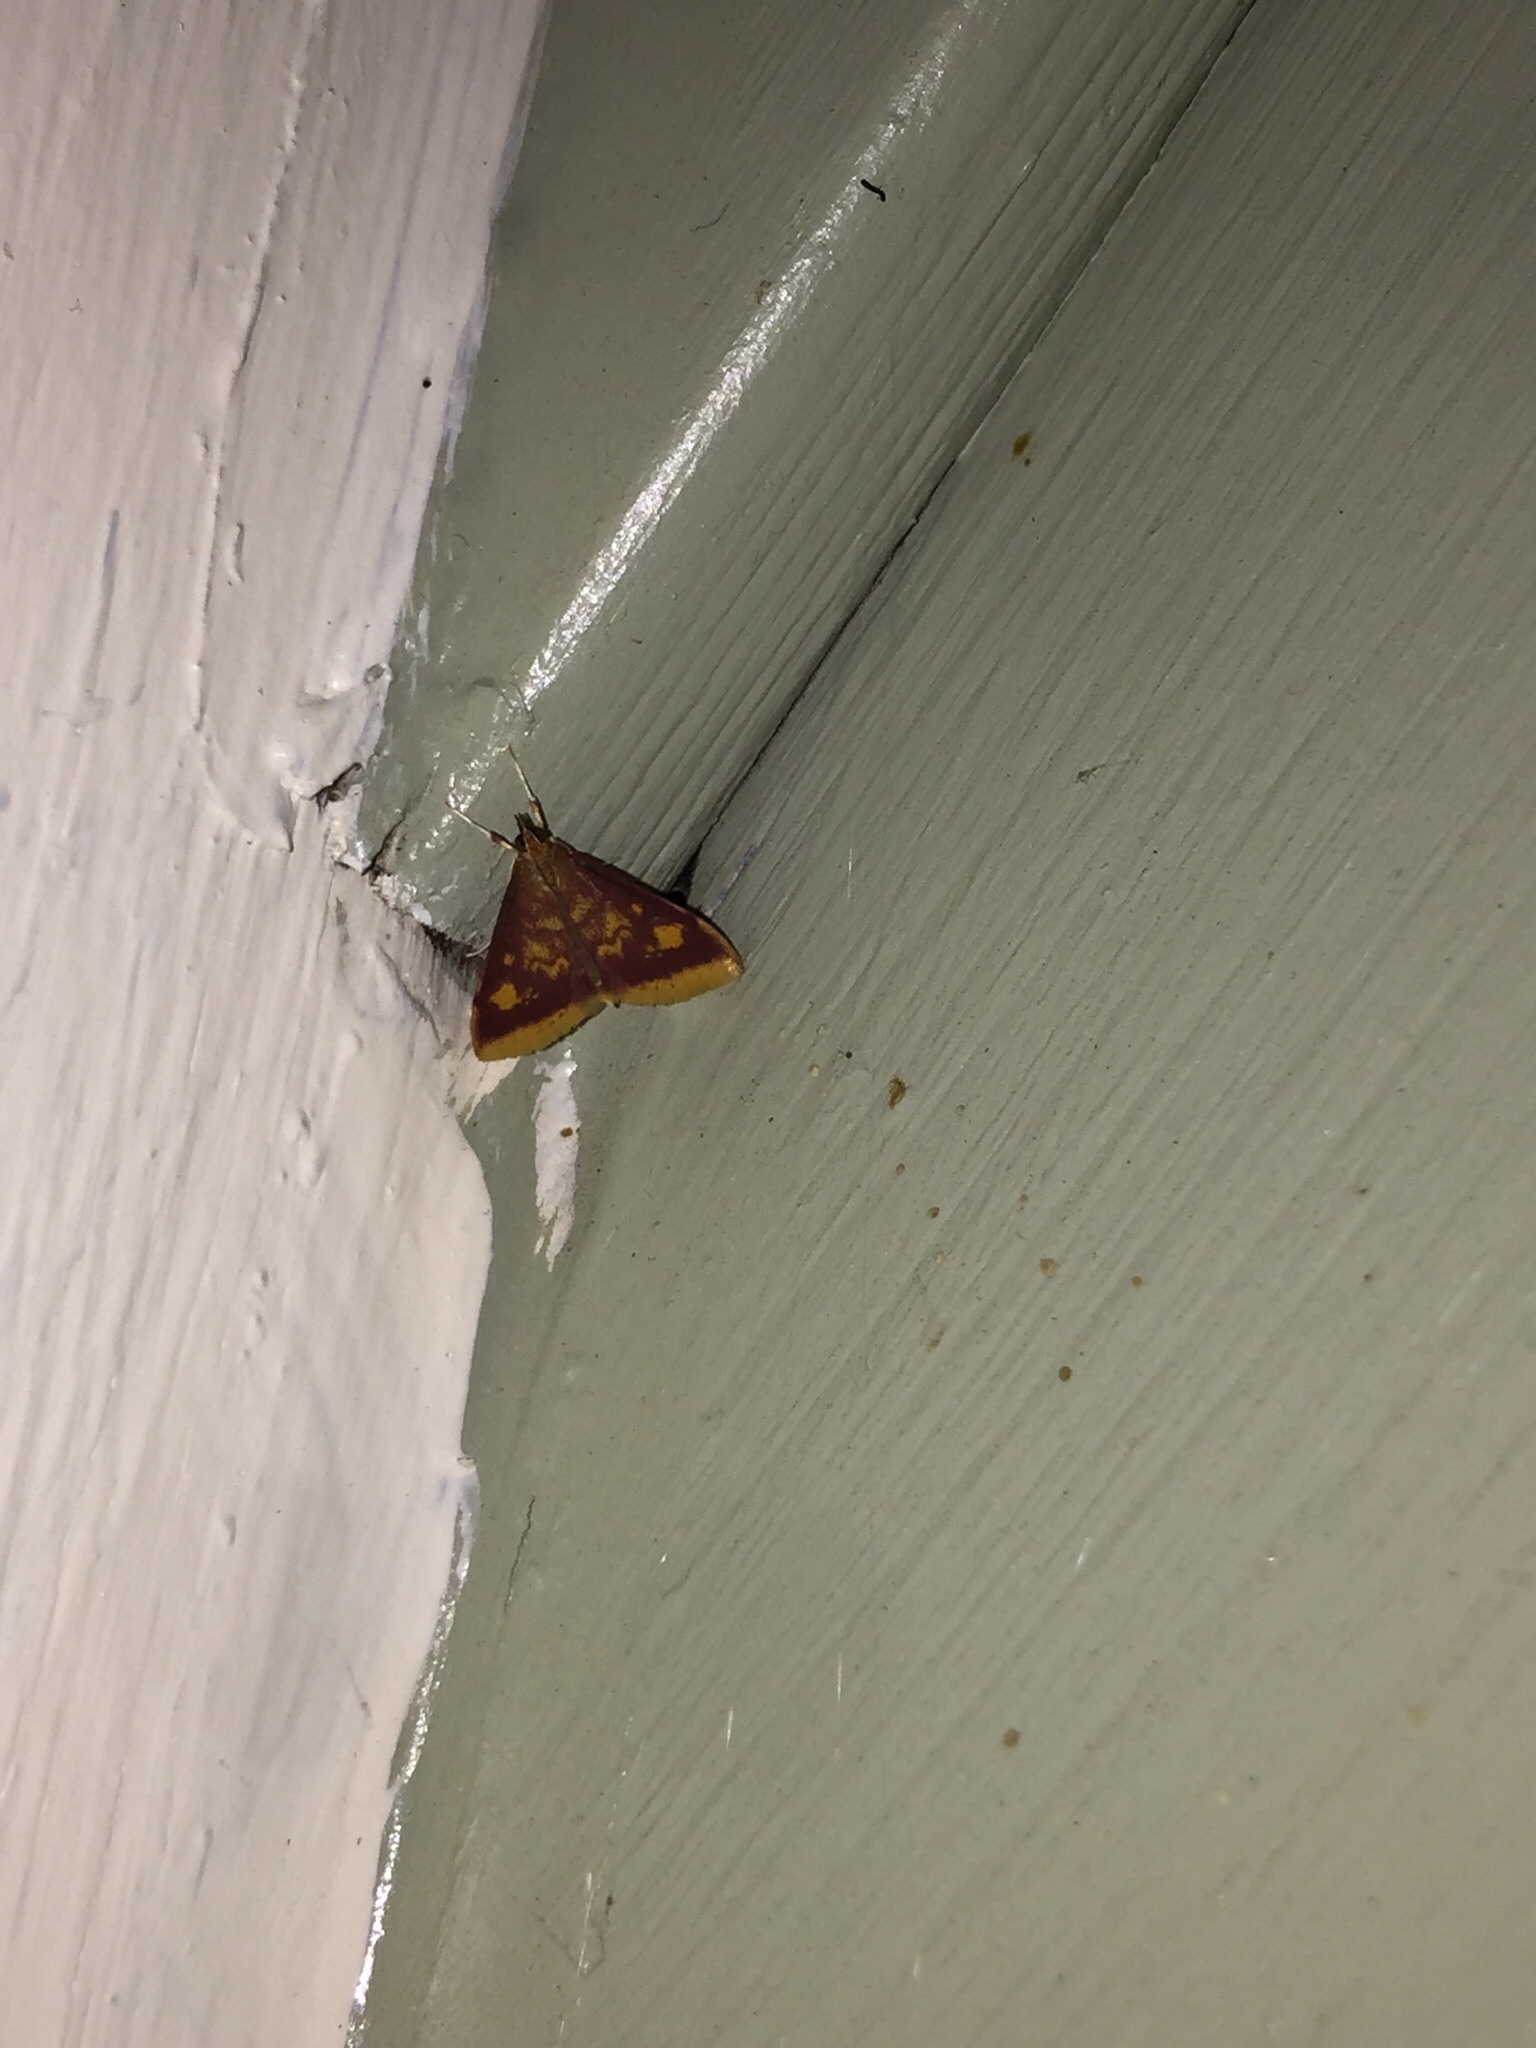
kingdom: Animalia
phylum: Arthropoda
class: Insecta
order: Lepidoptera
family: Crambidae
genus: Pyrausta
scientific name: Pyrausta acrionalis
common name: Mint-loving pyrausta moth
